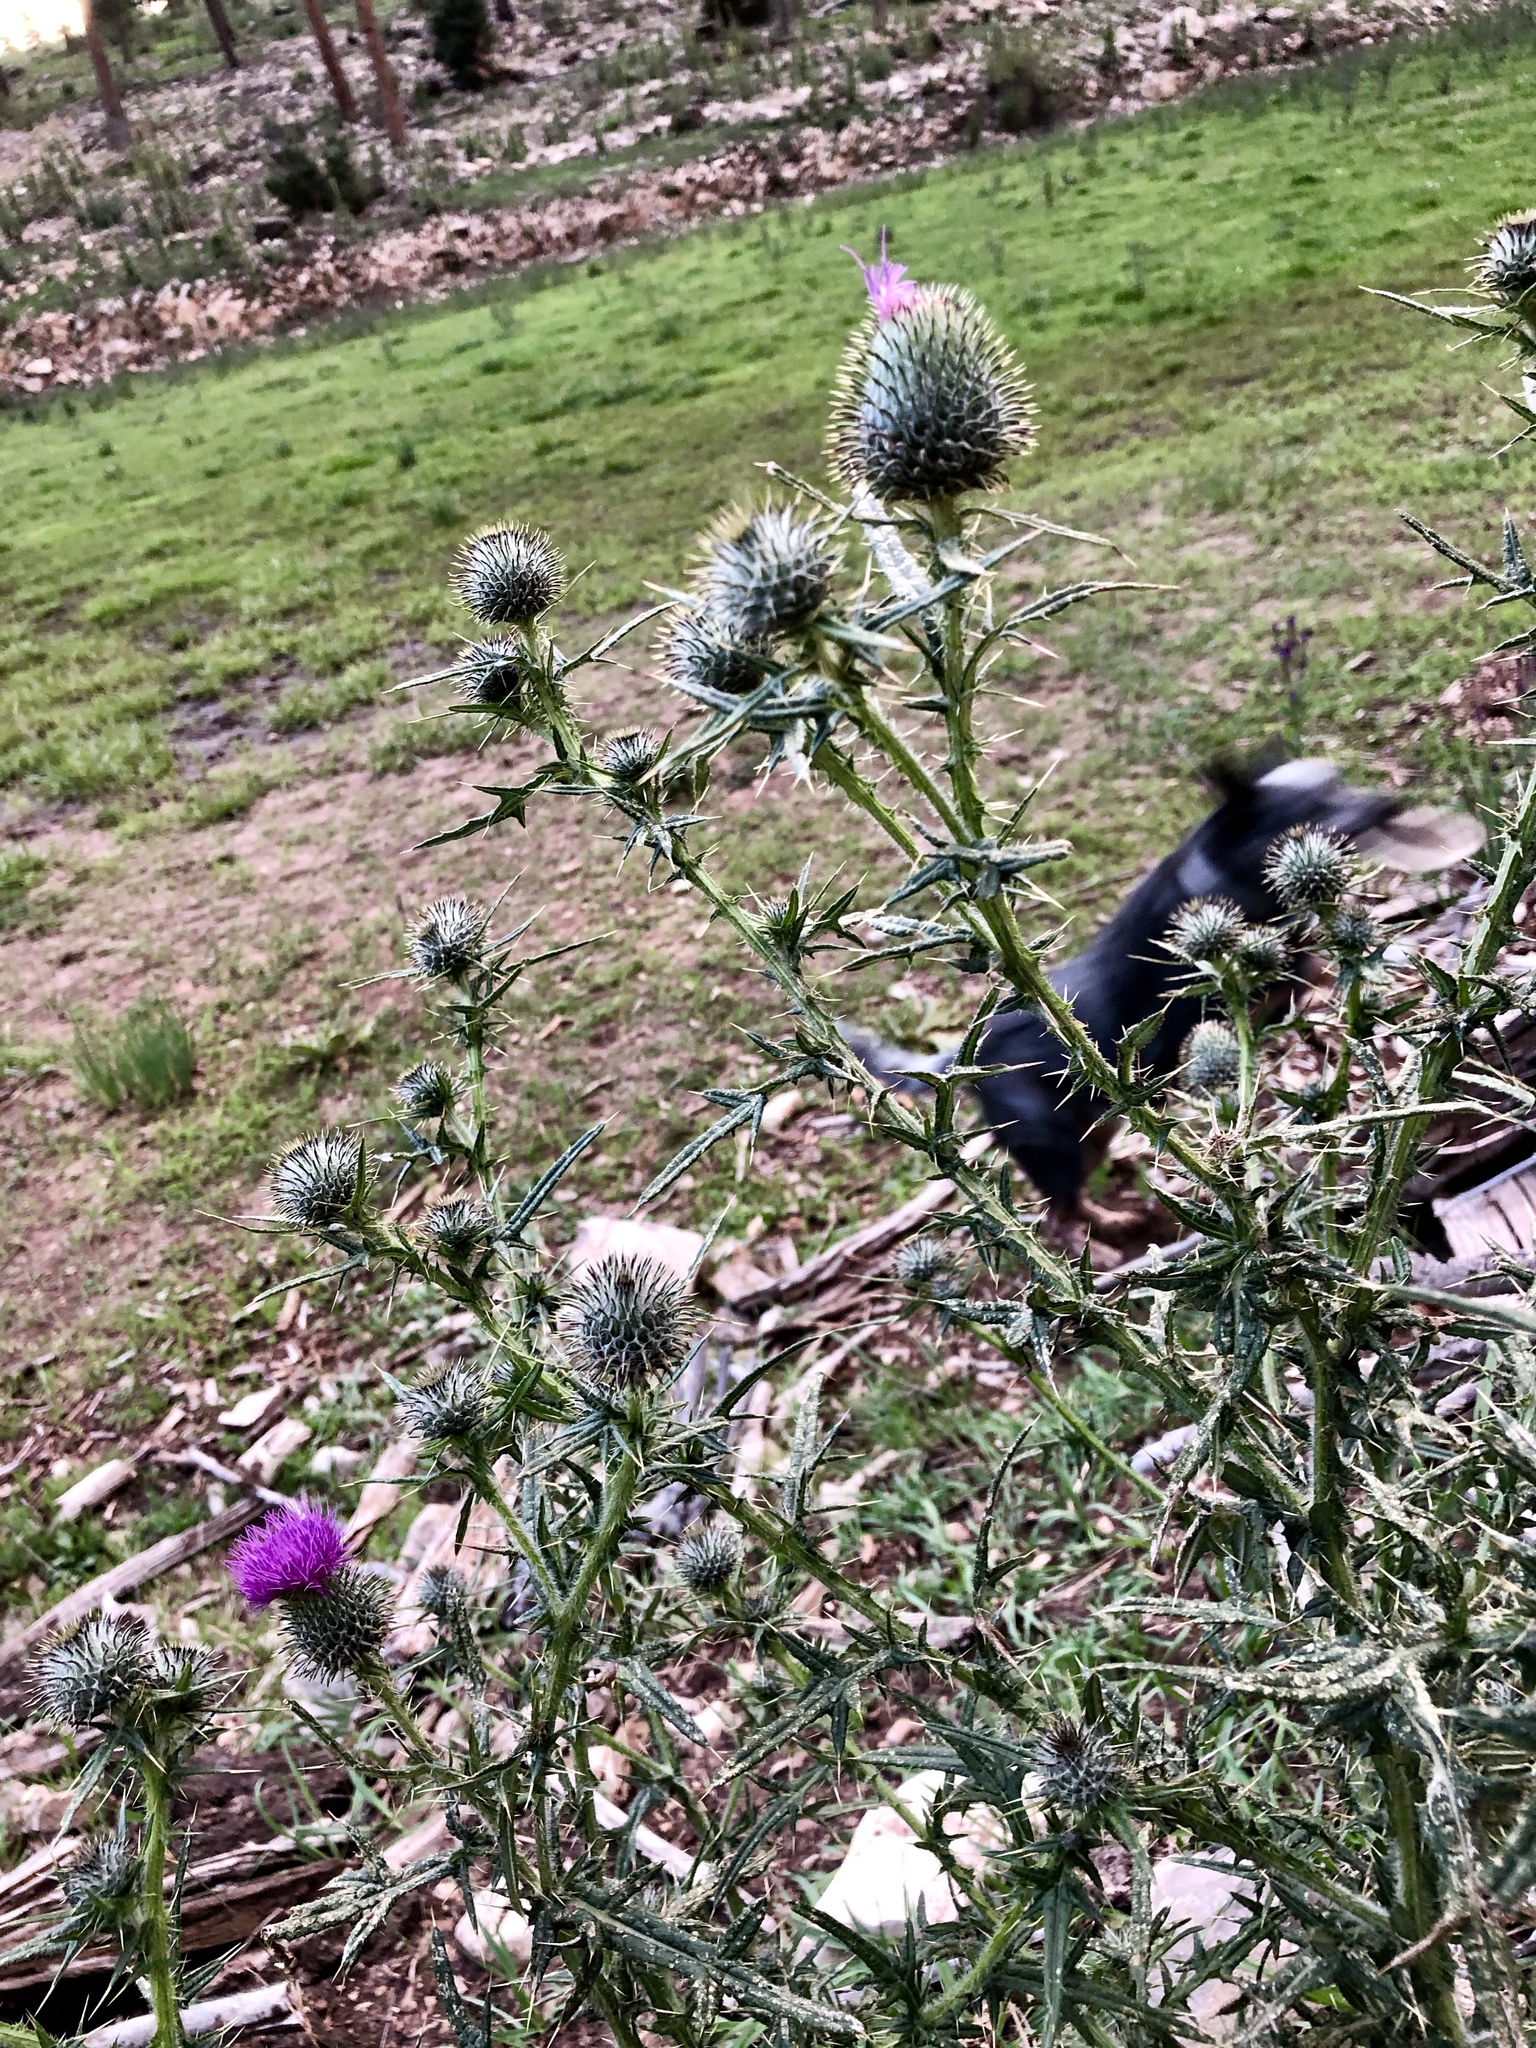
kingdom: Plantae
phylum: Tracheophyta
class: Magnoliopsida
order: Asterales
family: Asteraceae
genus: Cirsium
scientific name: Cirsium vulgare
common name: Bull thistle
